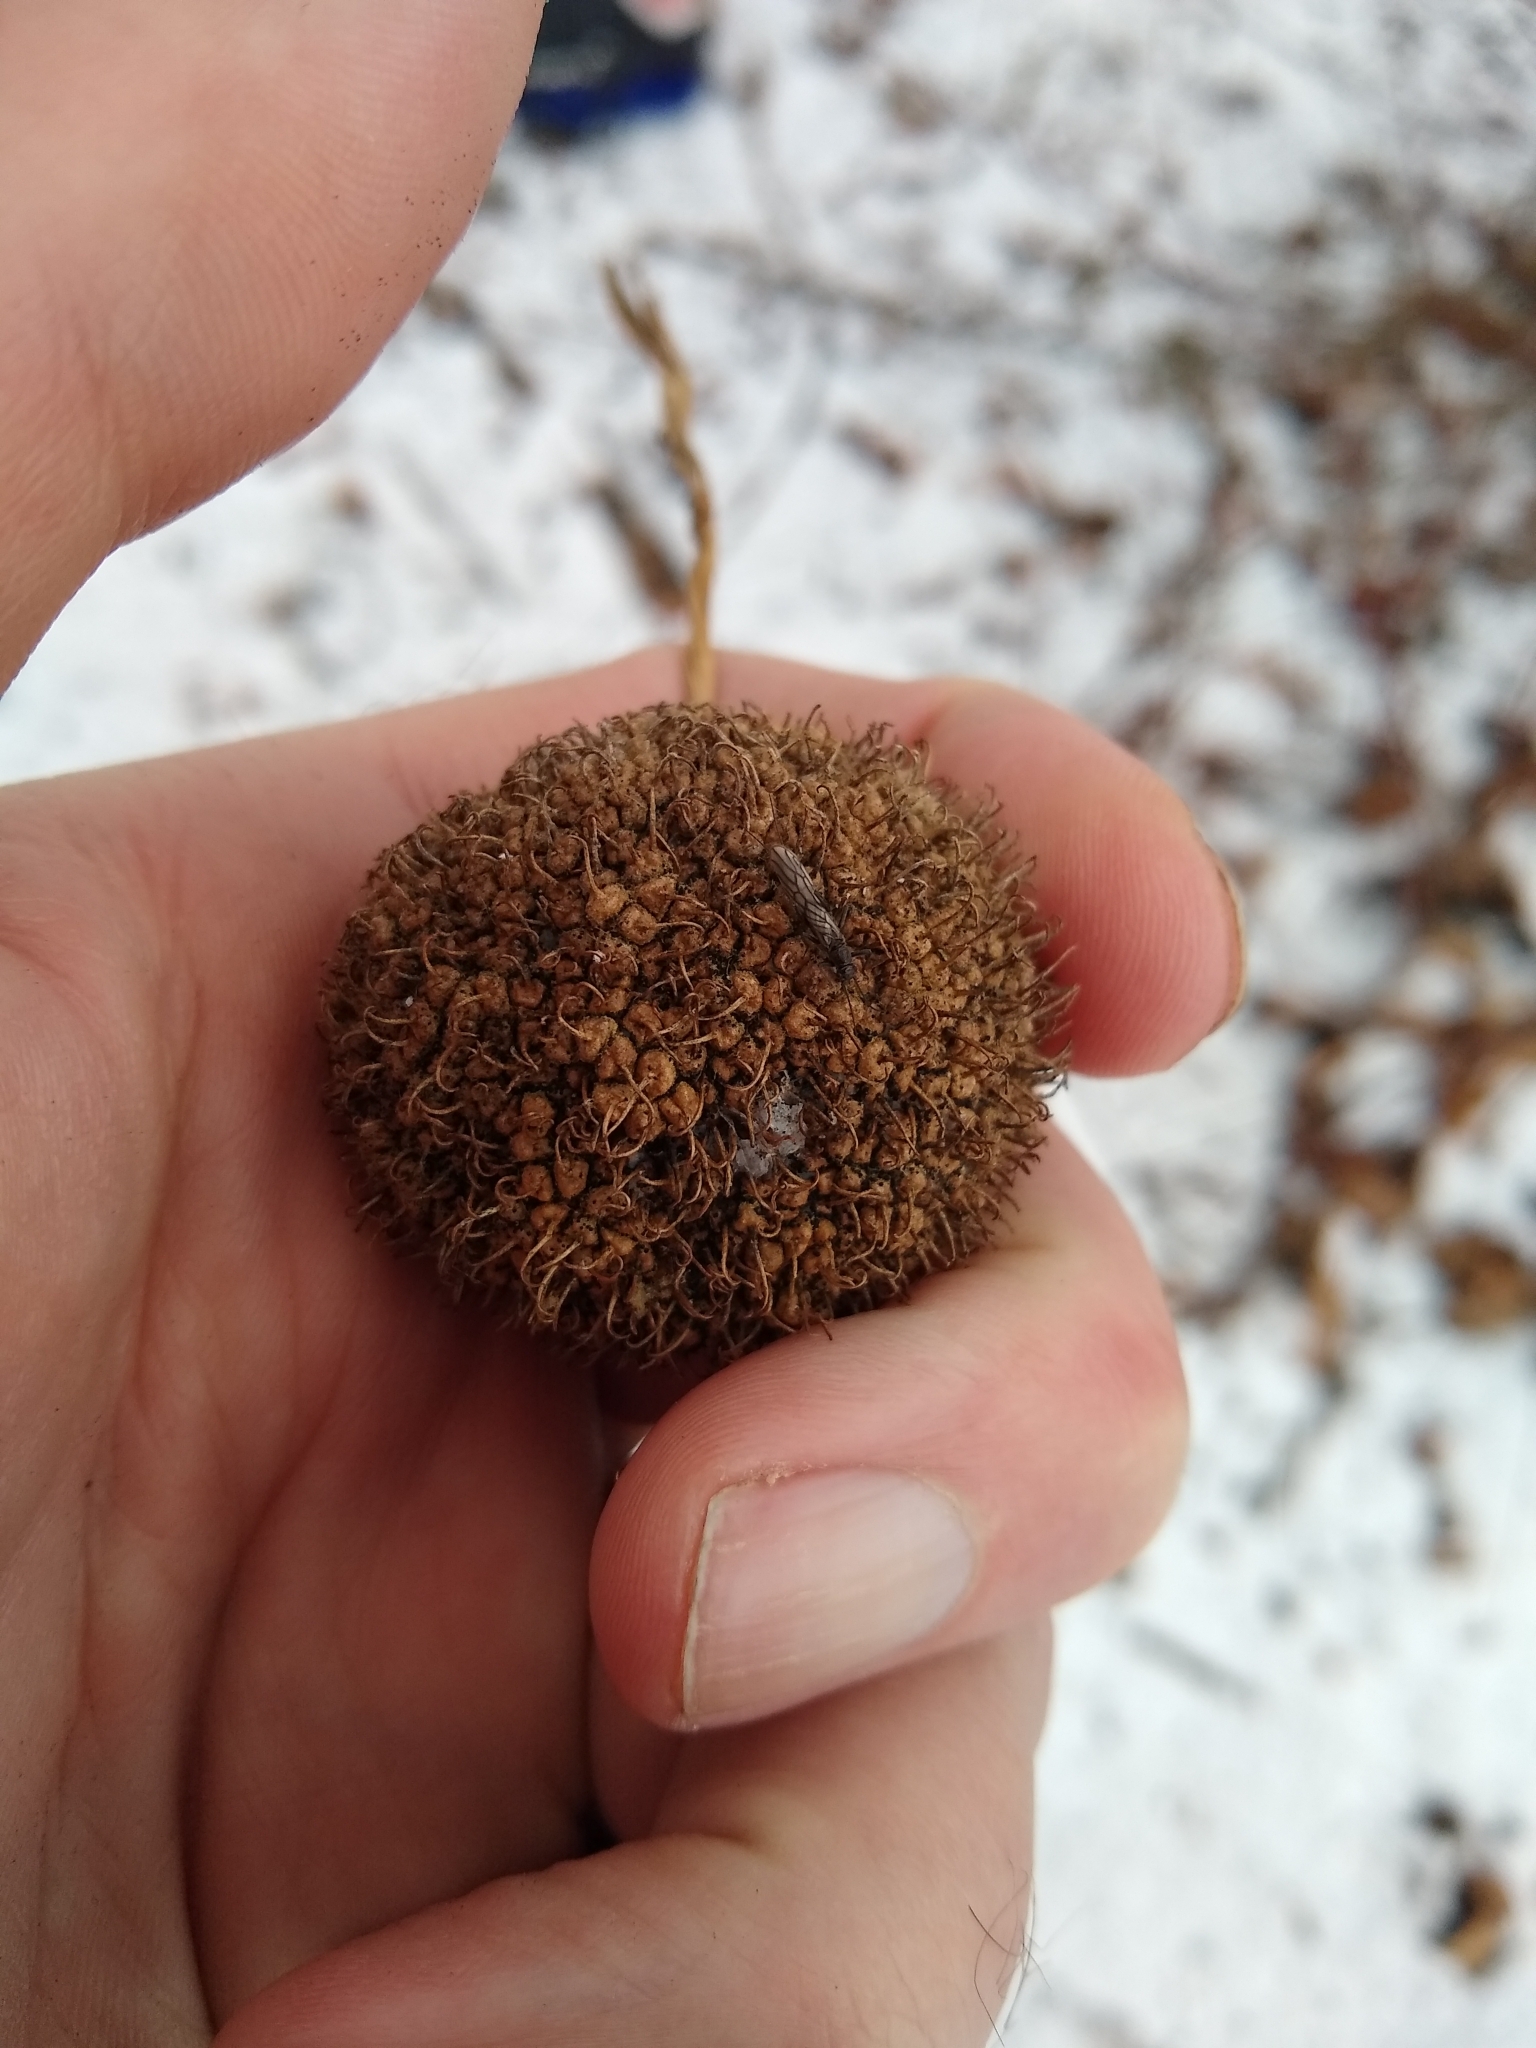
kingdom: Plantae
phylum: Tracheophyta
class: Magnoliopsida
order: Proteales
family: Platanaceae
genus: Platanus
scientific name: Platanus occidentalis
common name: American sycamore
